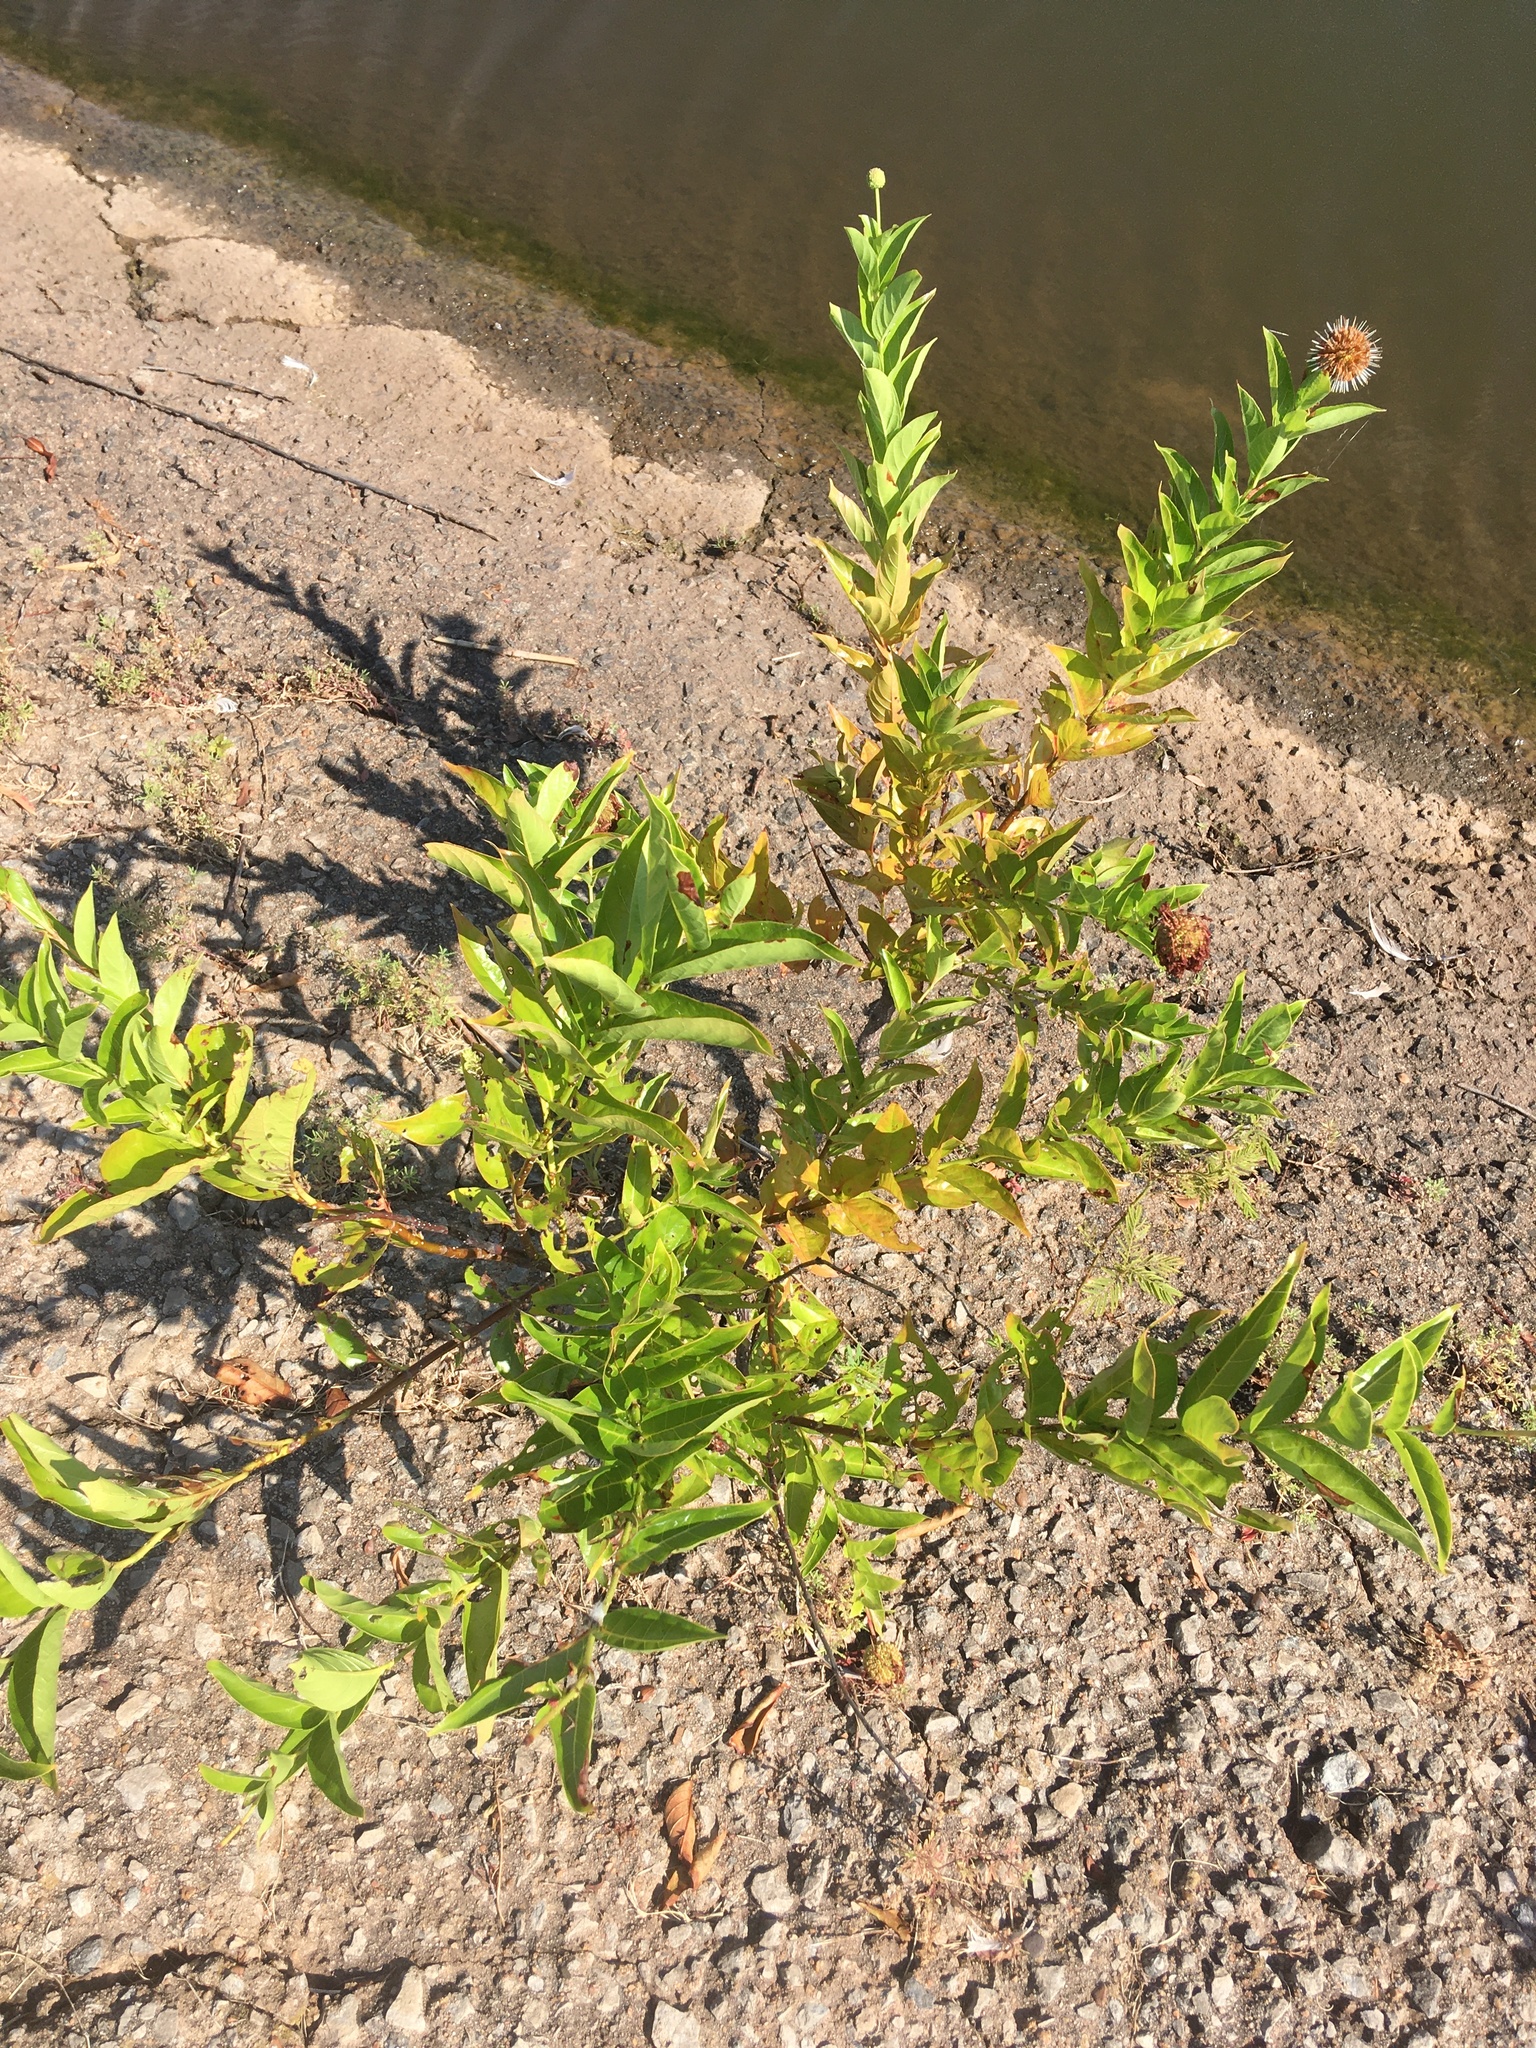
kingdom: Plantae
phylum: Tracheophyta
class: Magnoliopsida
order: Gentianales
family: Rubiaceae
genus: Cephalanthus
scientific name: Cephalanthus occidentalis
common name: Button-willow
